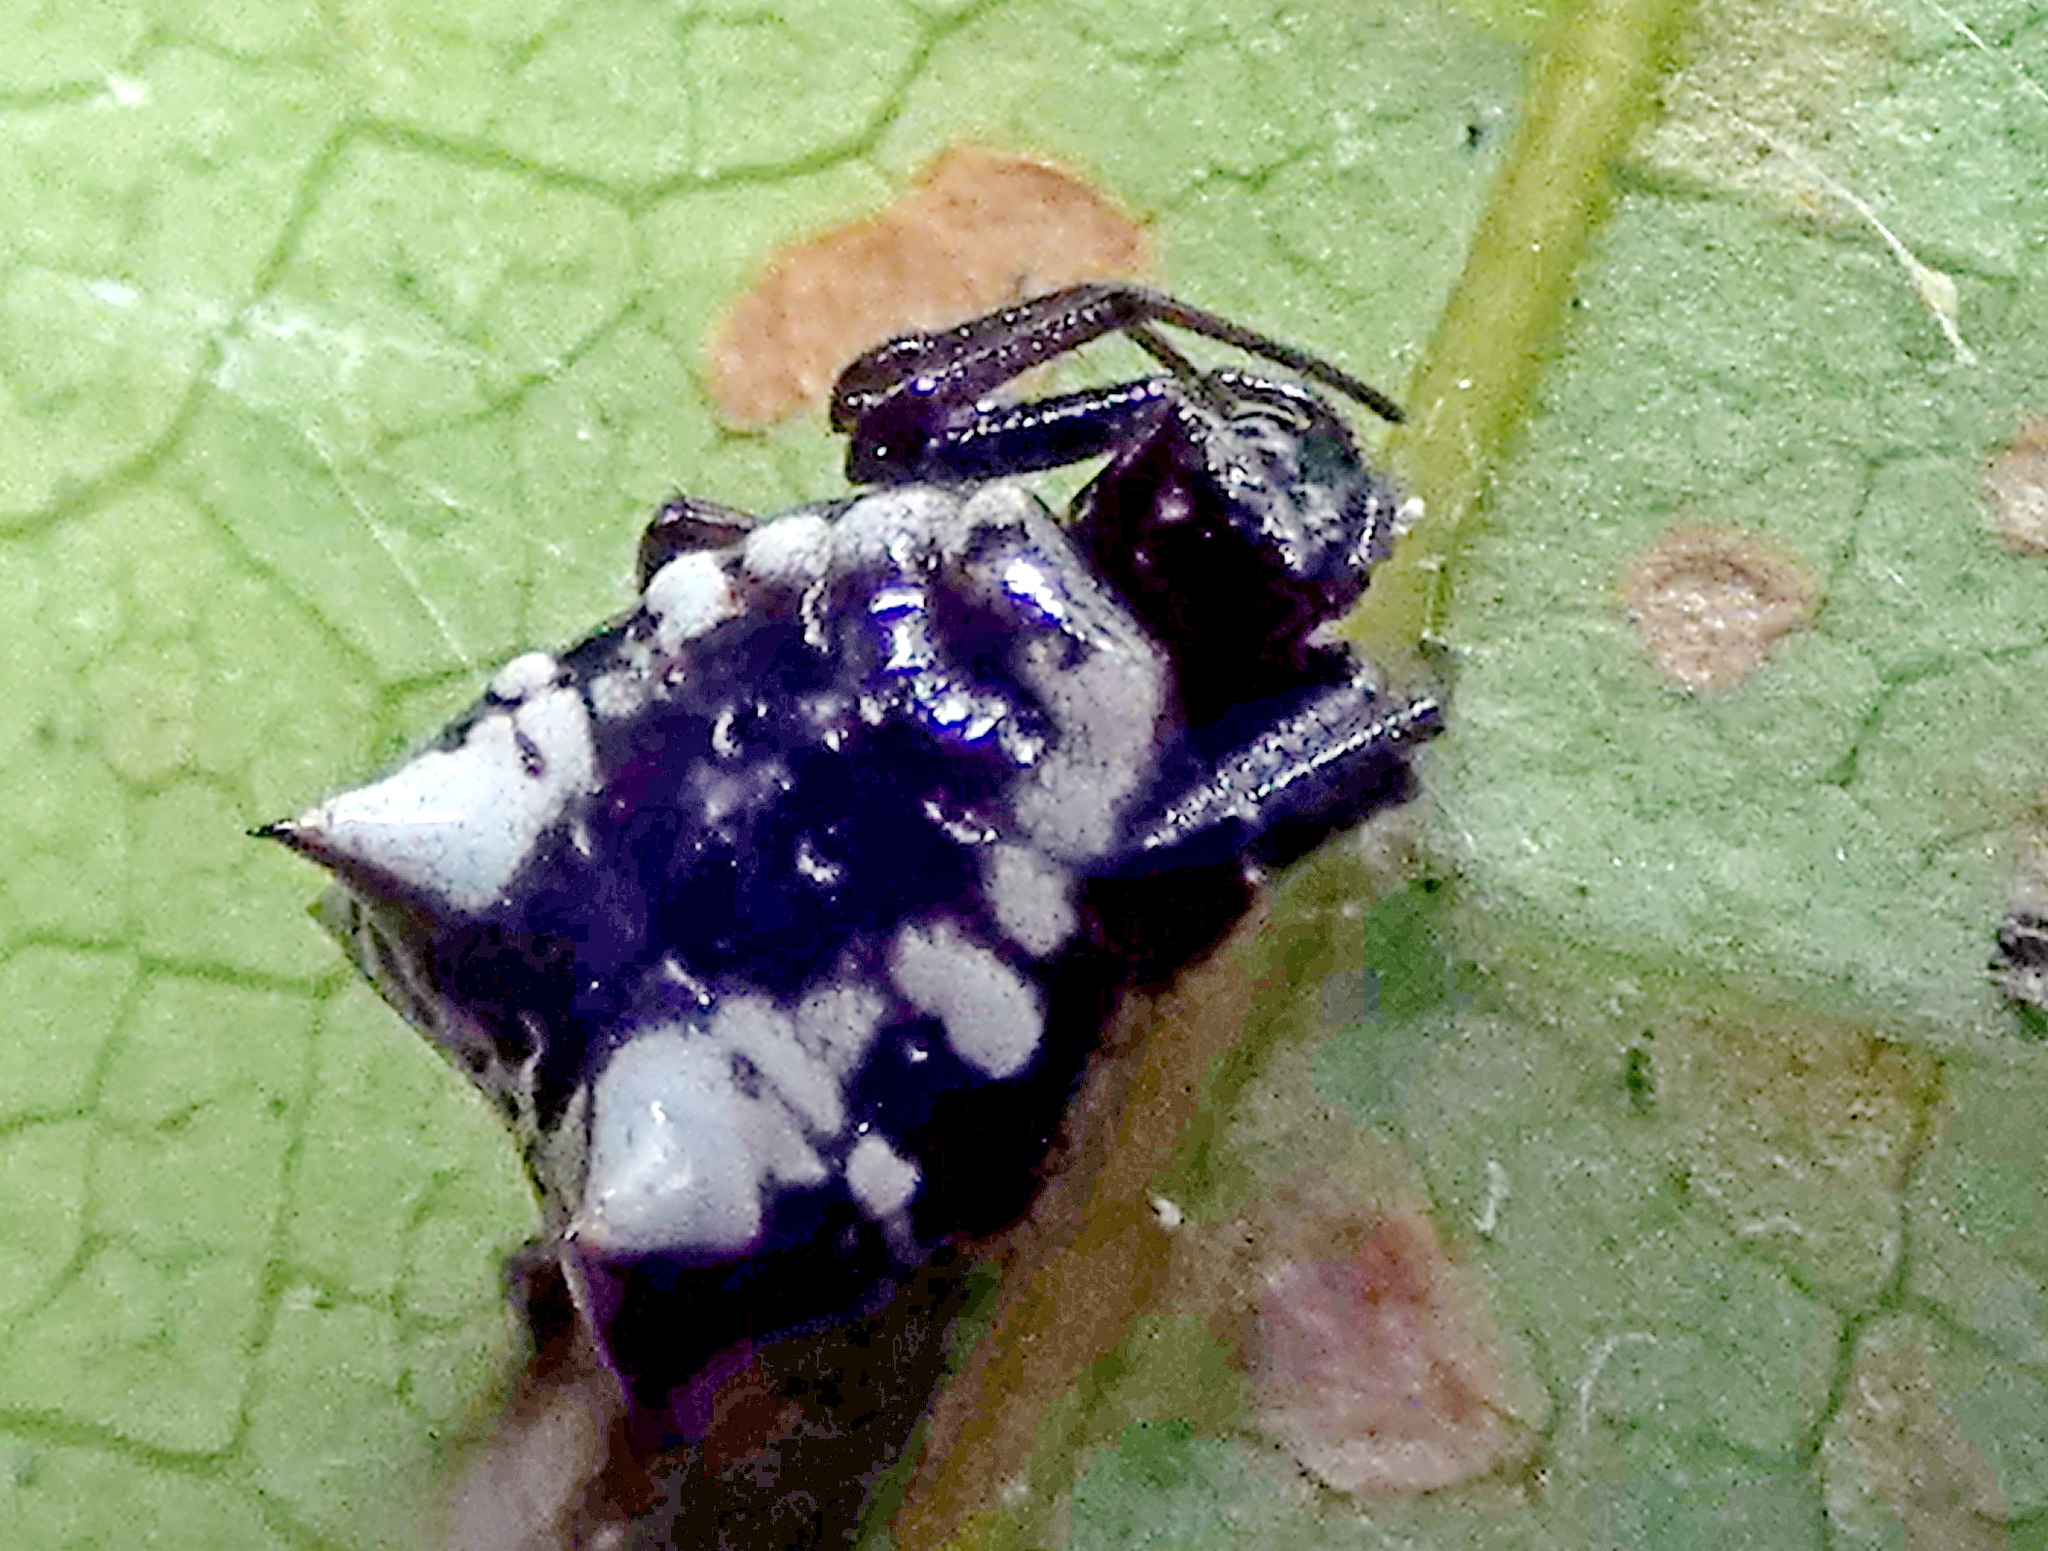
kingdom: Animalia
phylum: Arthropoda
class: Arachnida
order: Araneae
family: Araneidae
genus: Micrathena
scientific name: Micrathena patruelis
